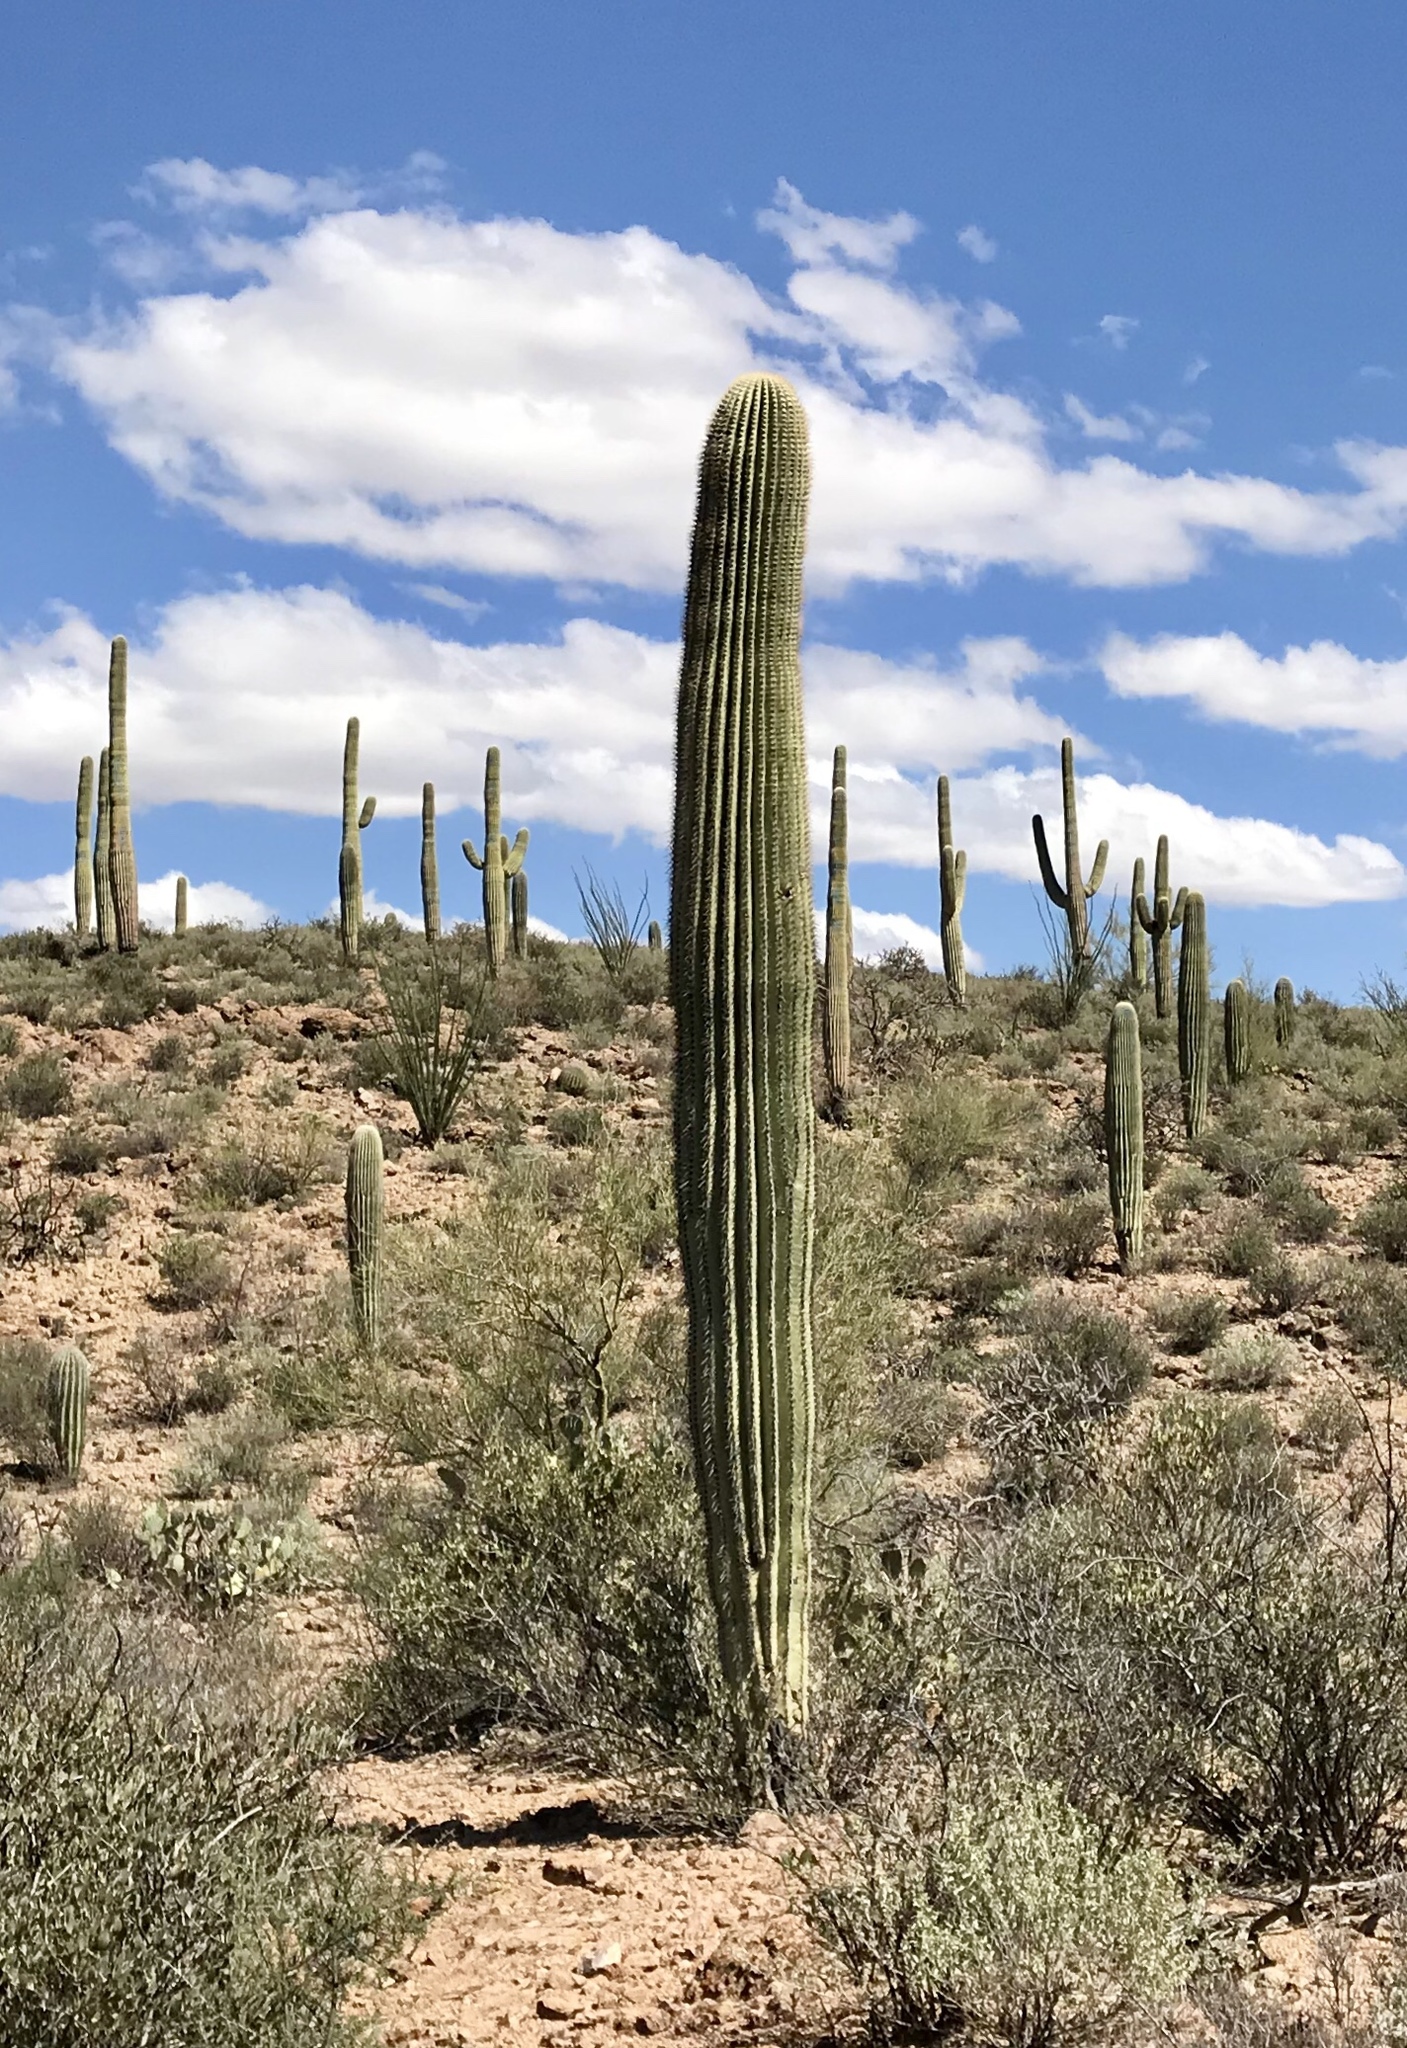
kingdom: Plantae
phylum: Tracheophyta
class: Magnoliopsida
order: Caryophyllales
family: Cactaceae
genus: Carnegiea
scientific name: Carnegiea gigantea
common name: Saguaro
